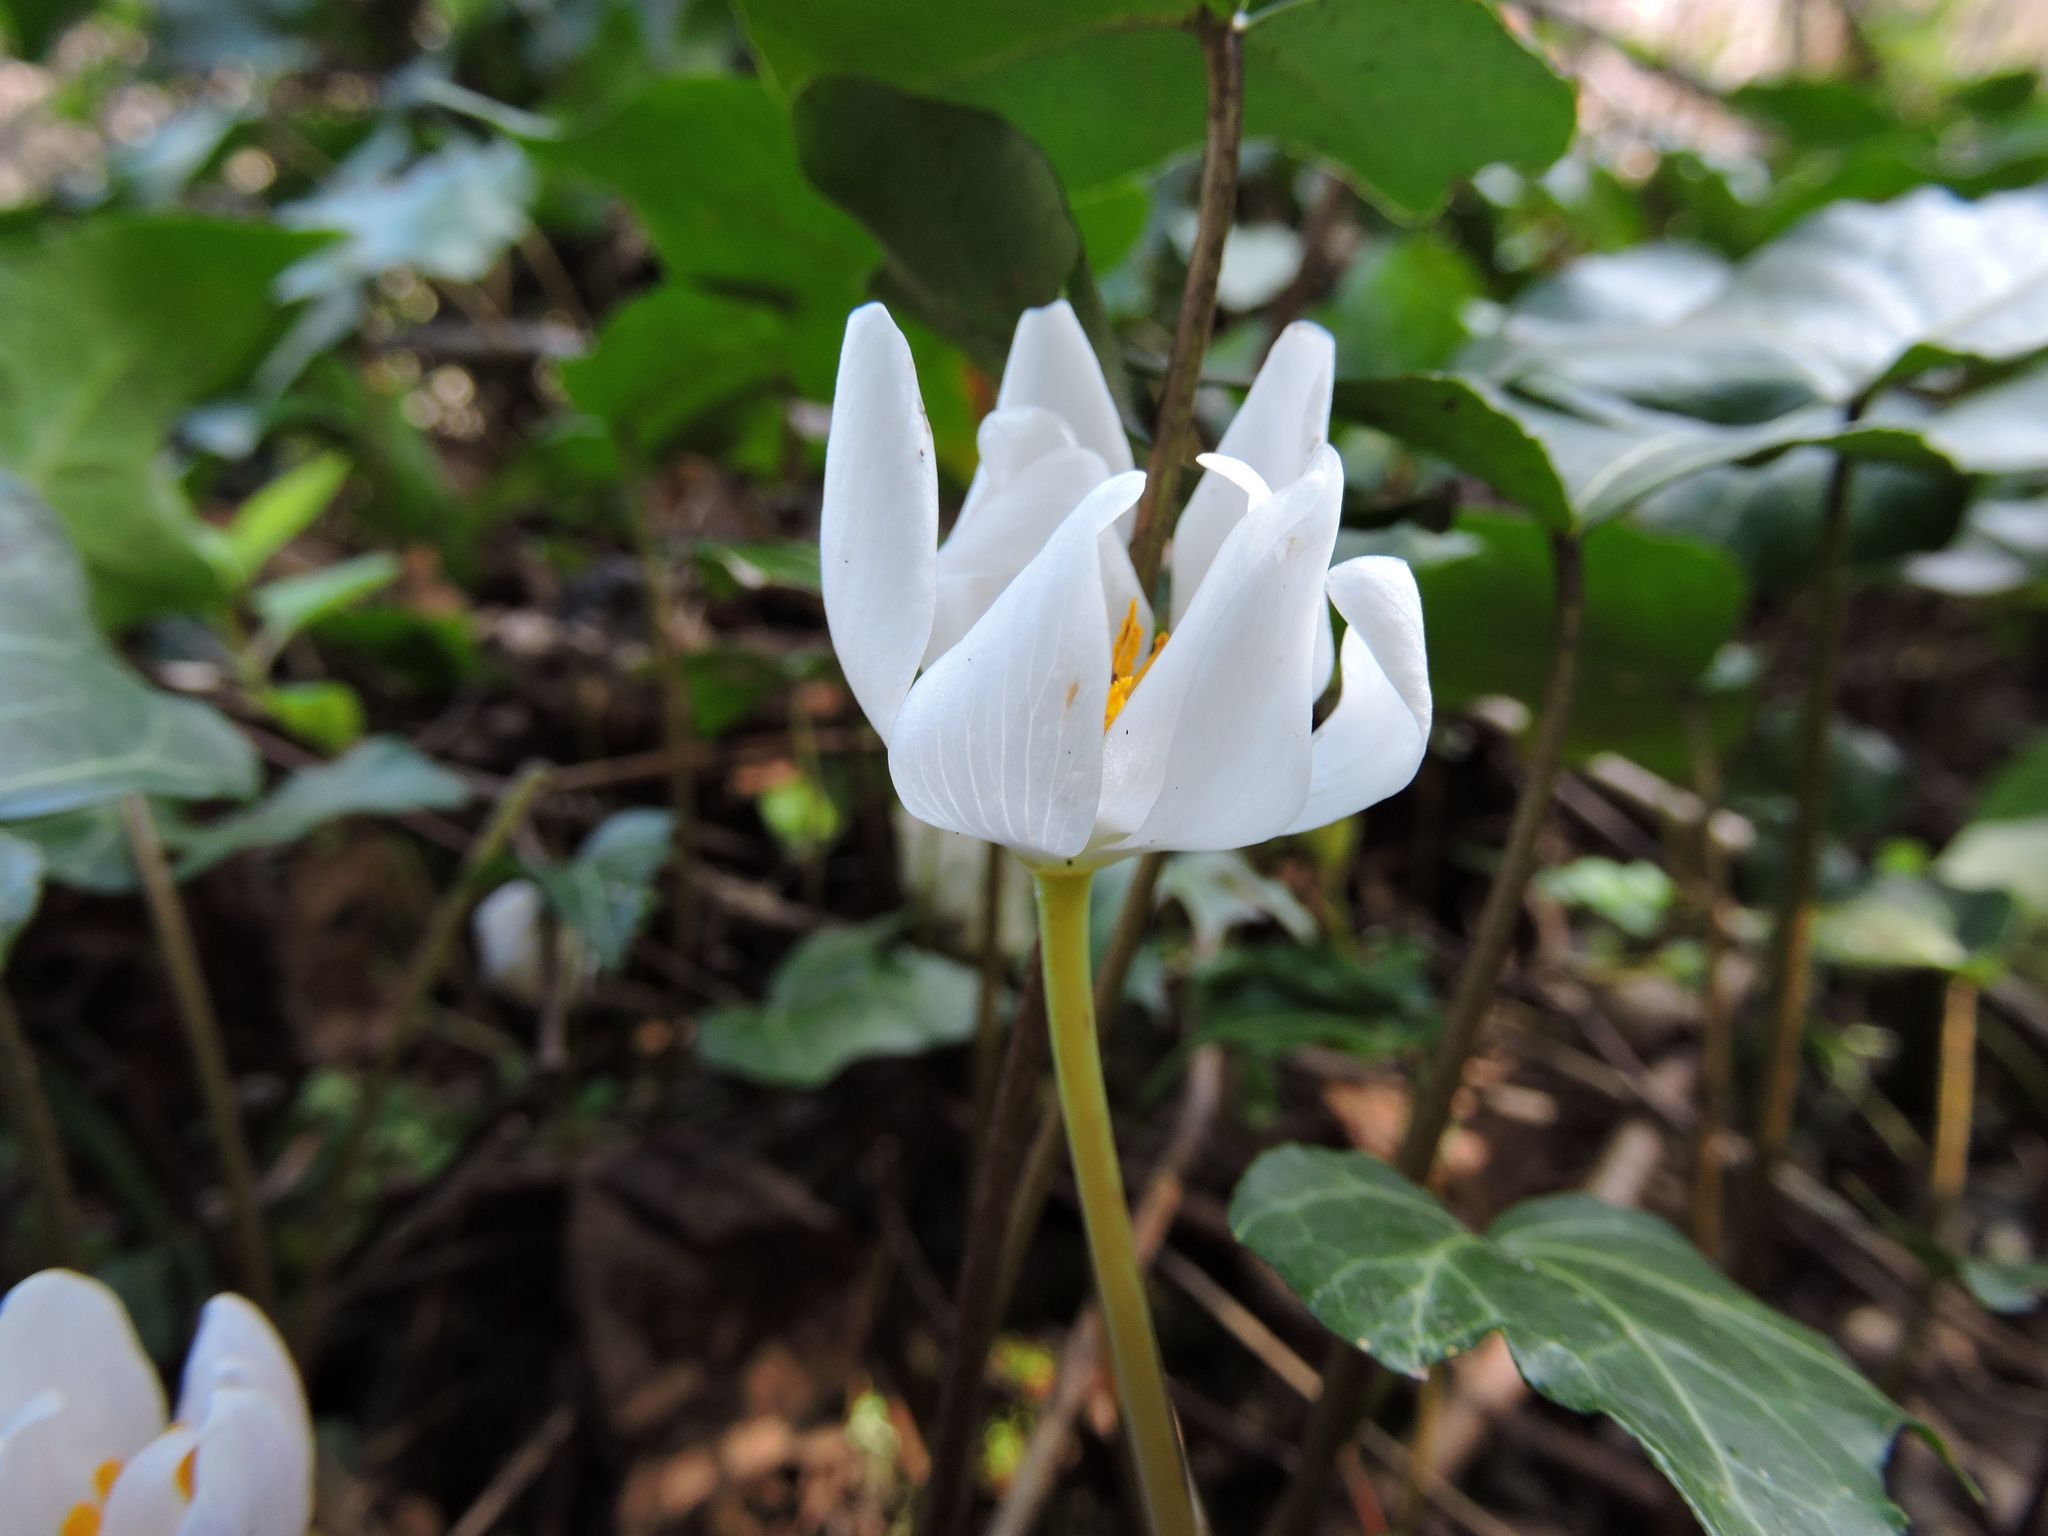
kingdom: Plantae
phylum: Tracheophyta
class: Magnoliopsida
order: Ranunculales
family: Papaveraceae
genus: Sanguinaria
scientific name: Sanguinaria canadensis
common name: Bloodroot
